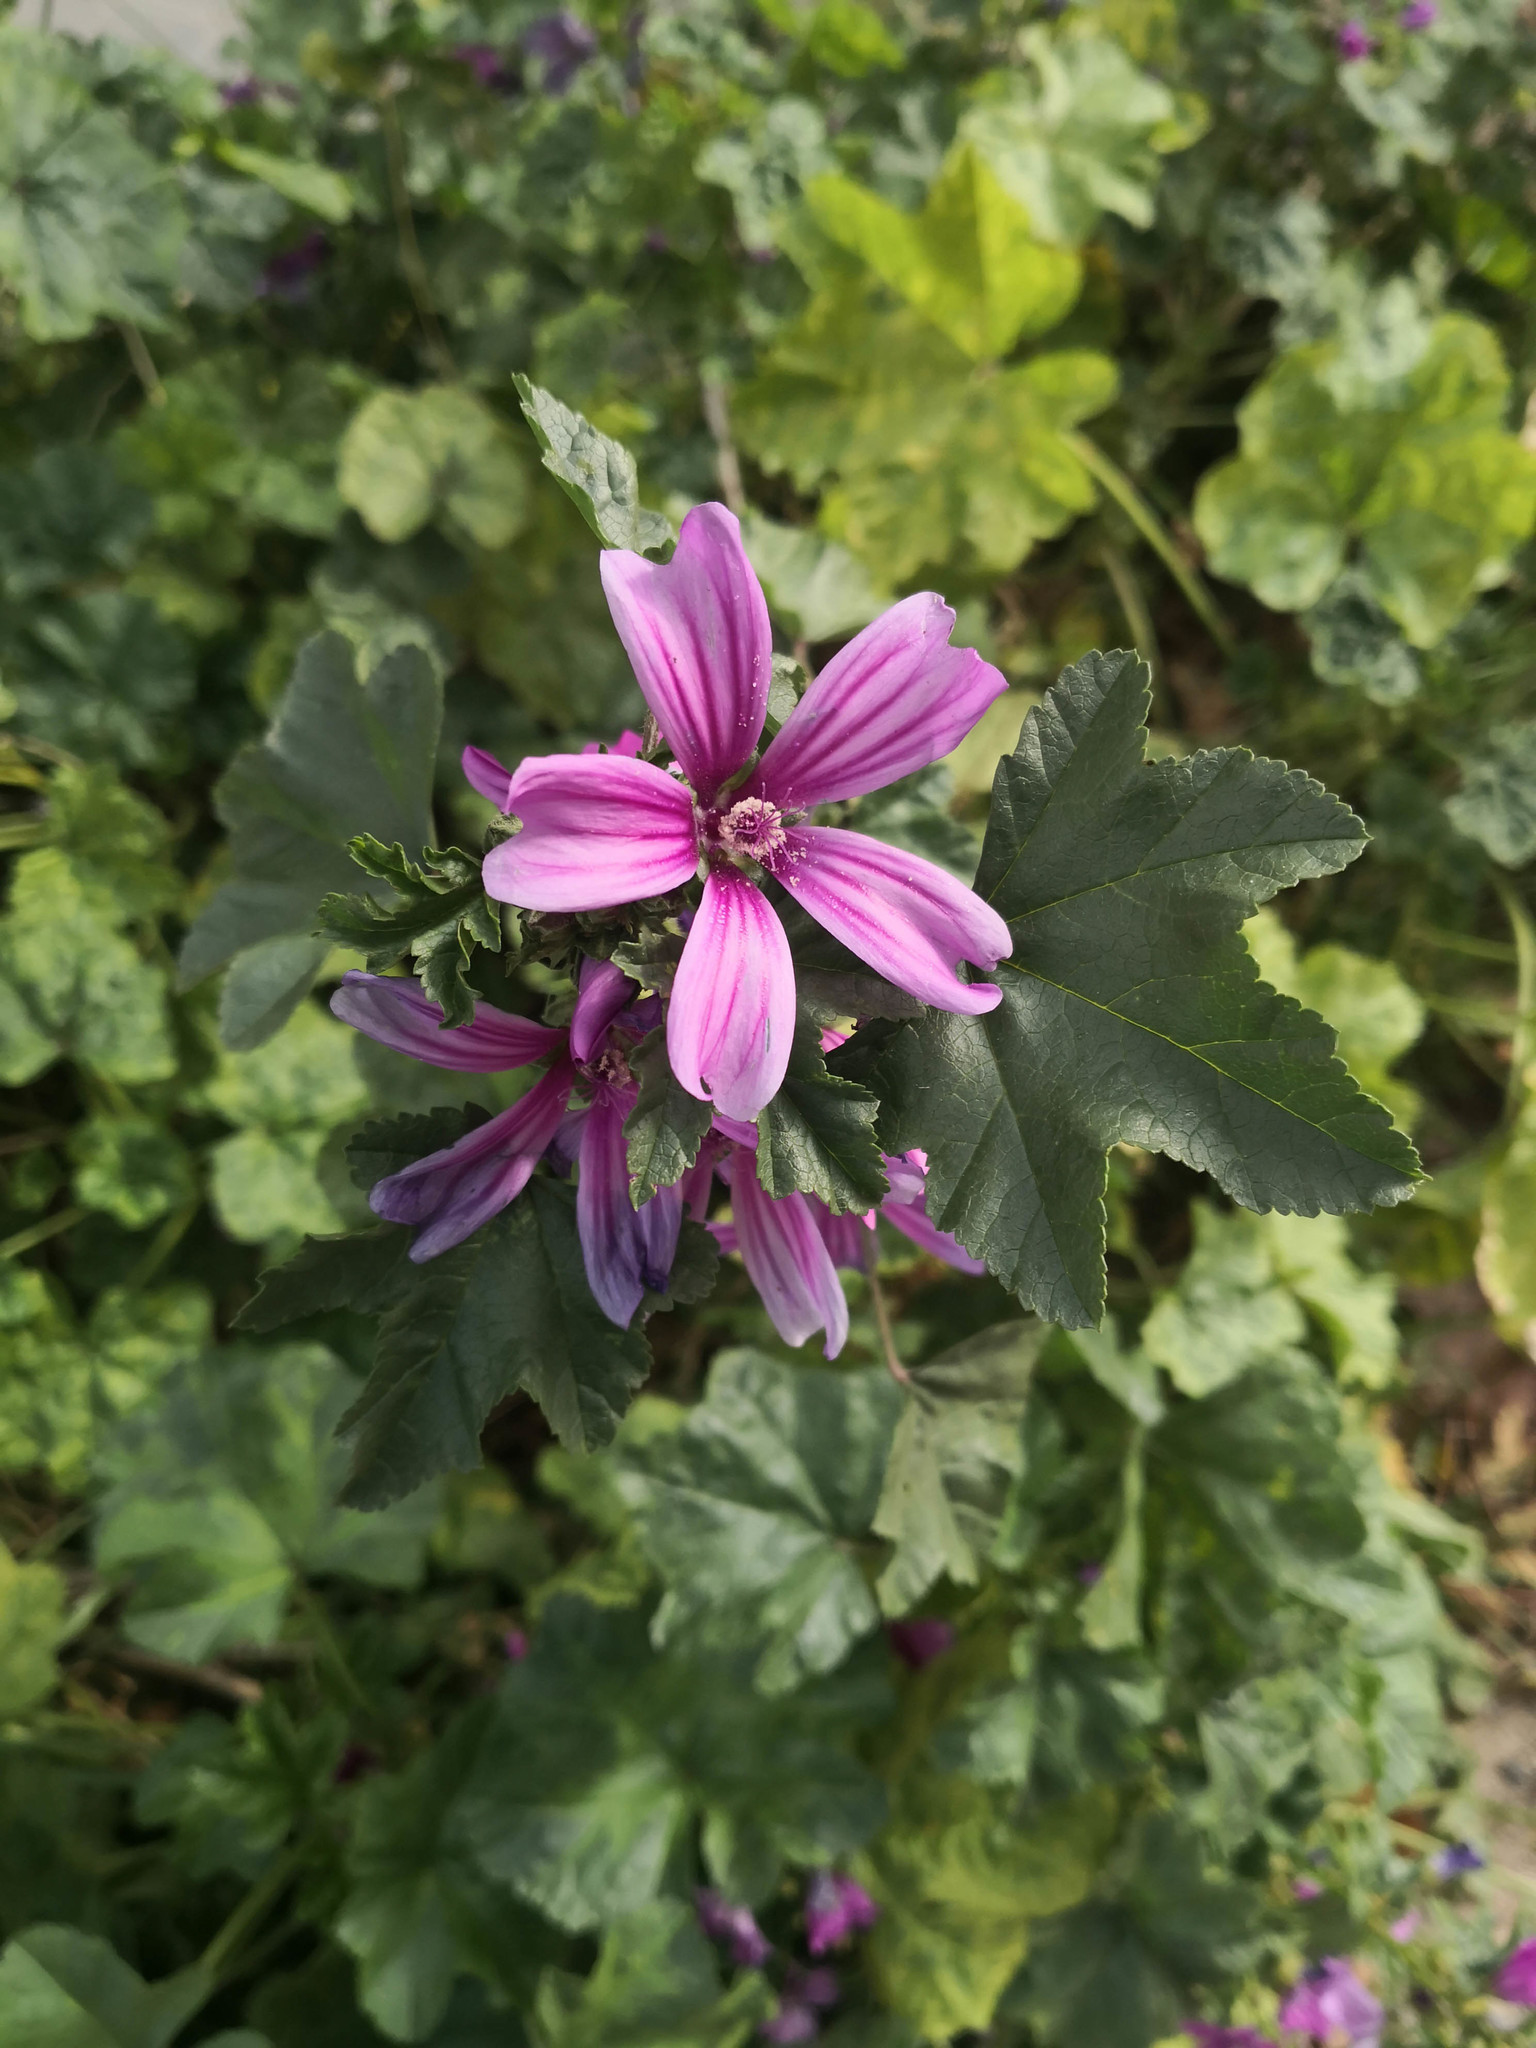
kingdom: Plantae
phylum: Tracheophyta
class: Magnoliopsida
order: Malvales
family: Malvaceae
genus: Malva
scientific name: Malva sylvestris
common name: Common mallow
